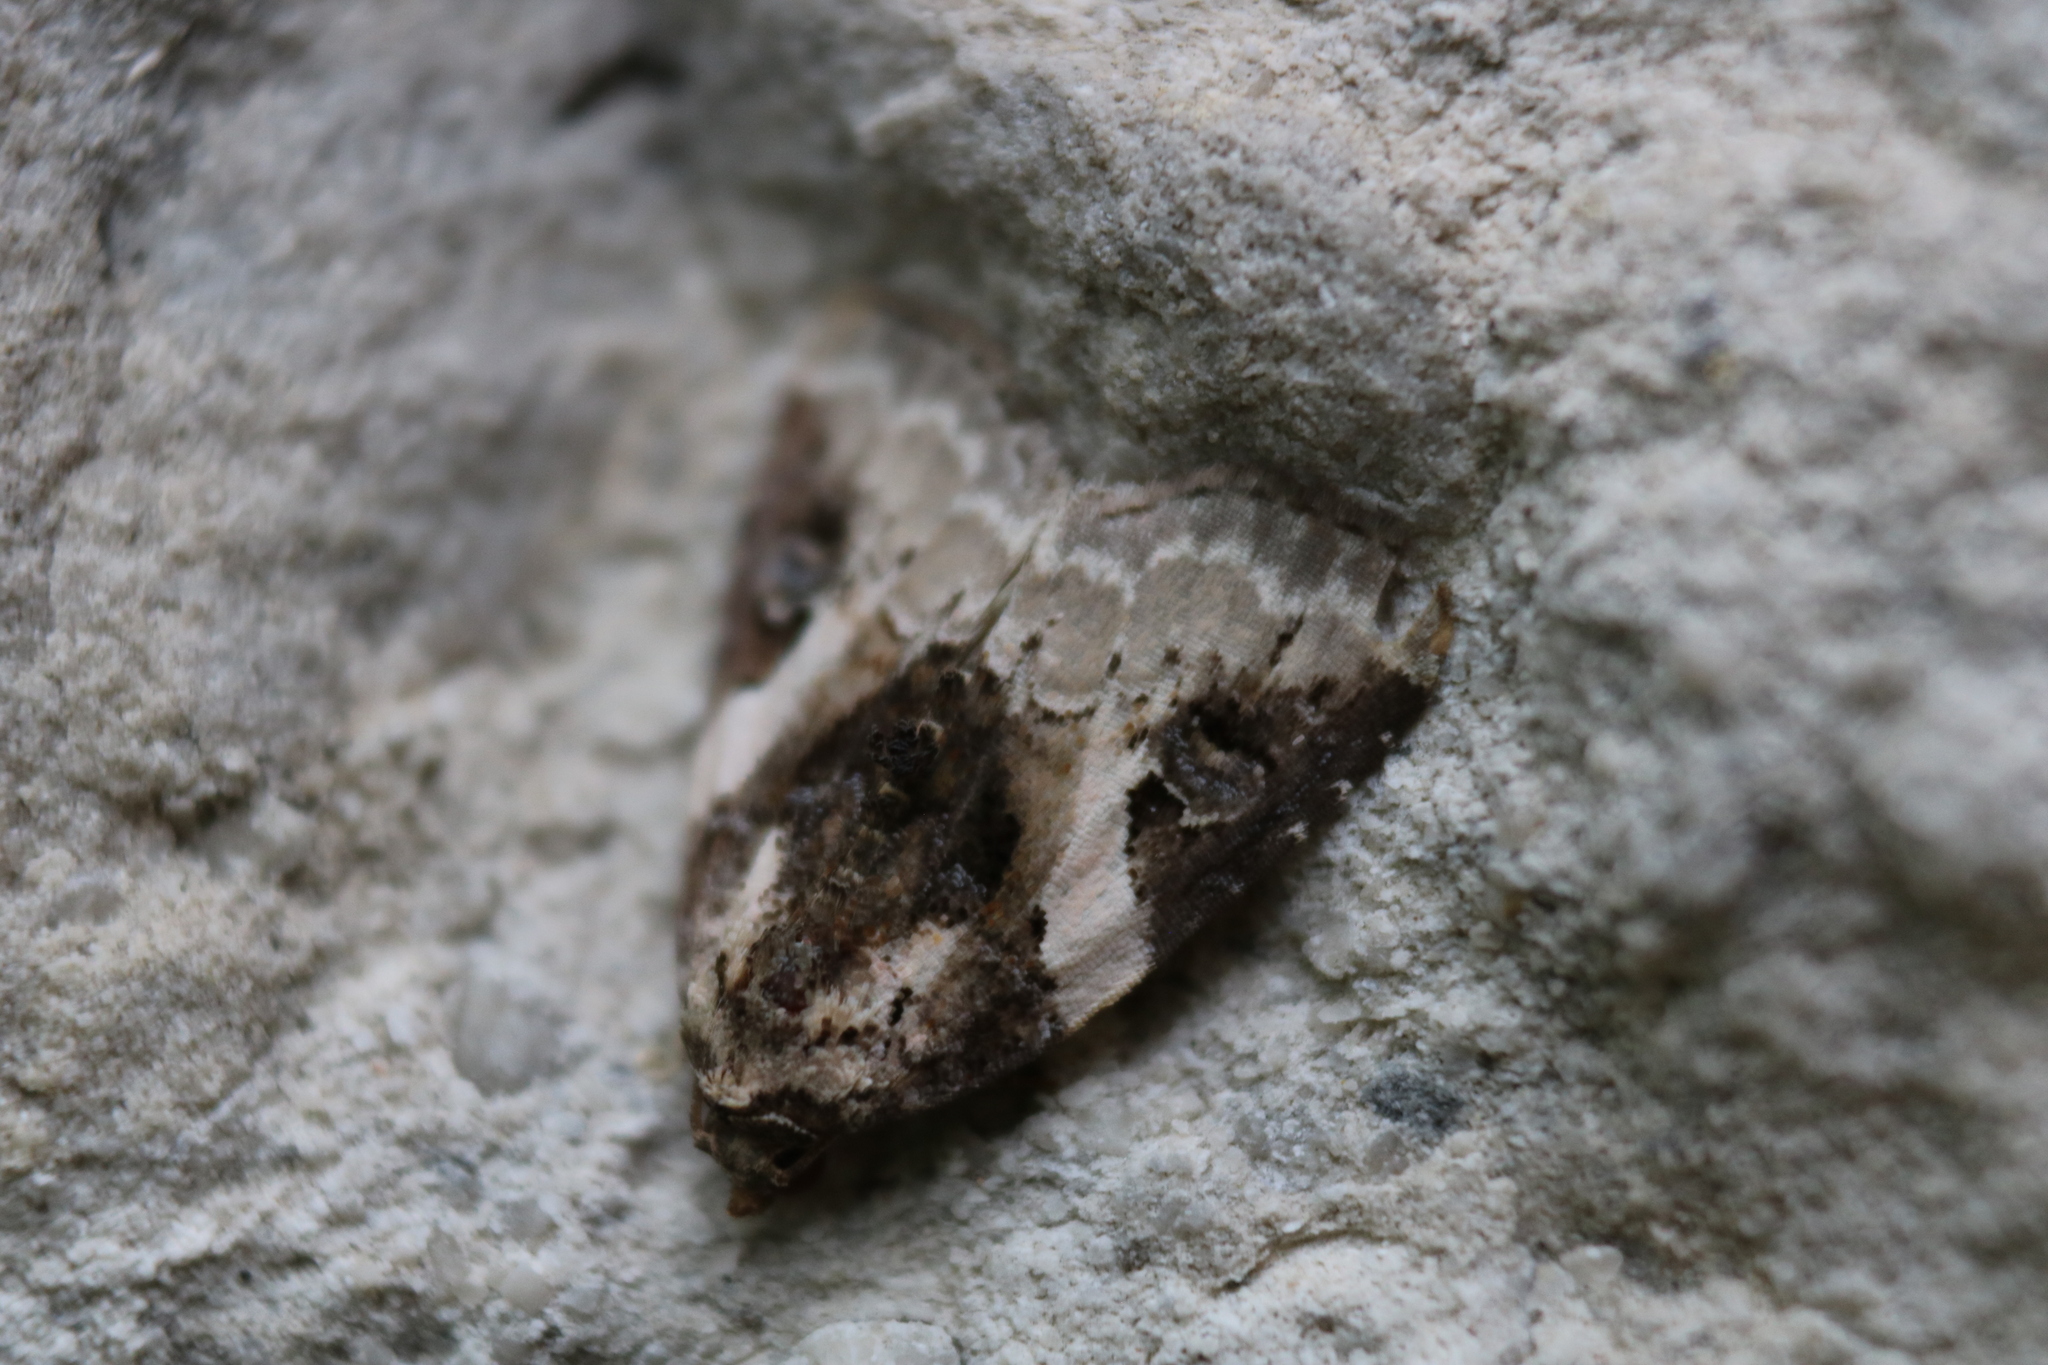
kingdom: Animalia
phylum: Arthropoda
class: Insecta
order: Lepidoptera
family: Noctuidae
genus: Pseudeustrotia
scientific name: Pseudeustrotia carneola
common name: Pink-barred lithacodia moth
